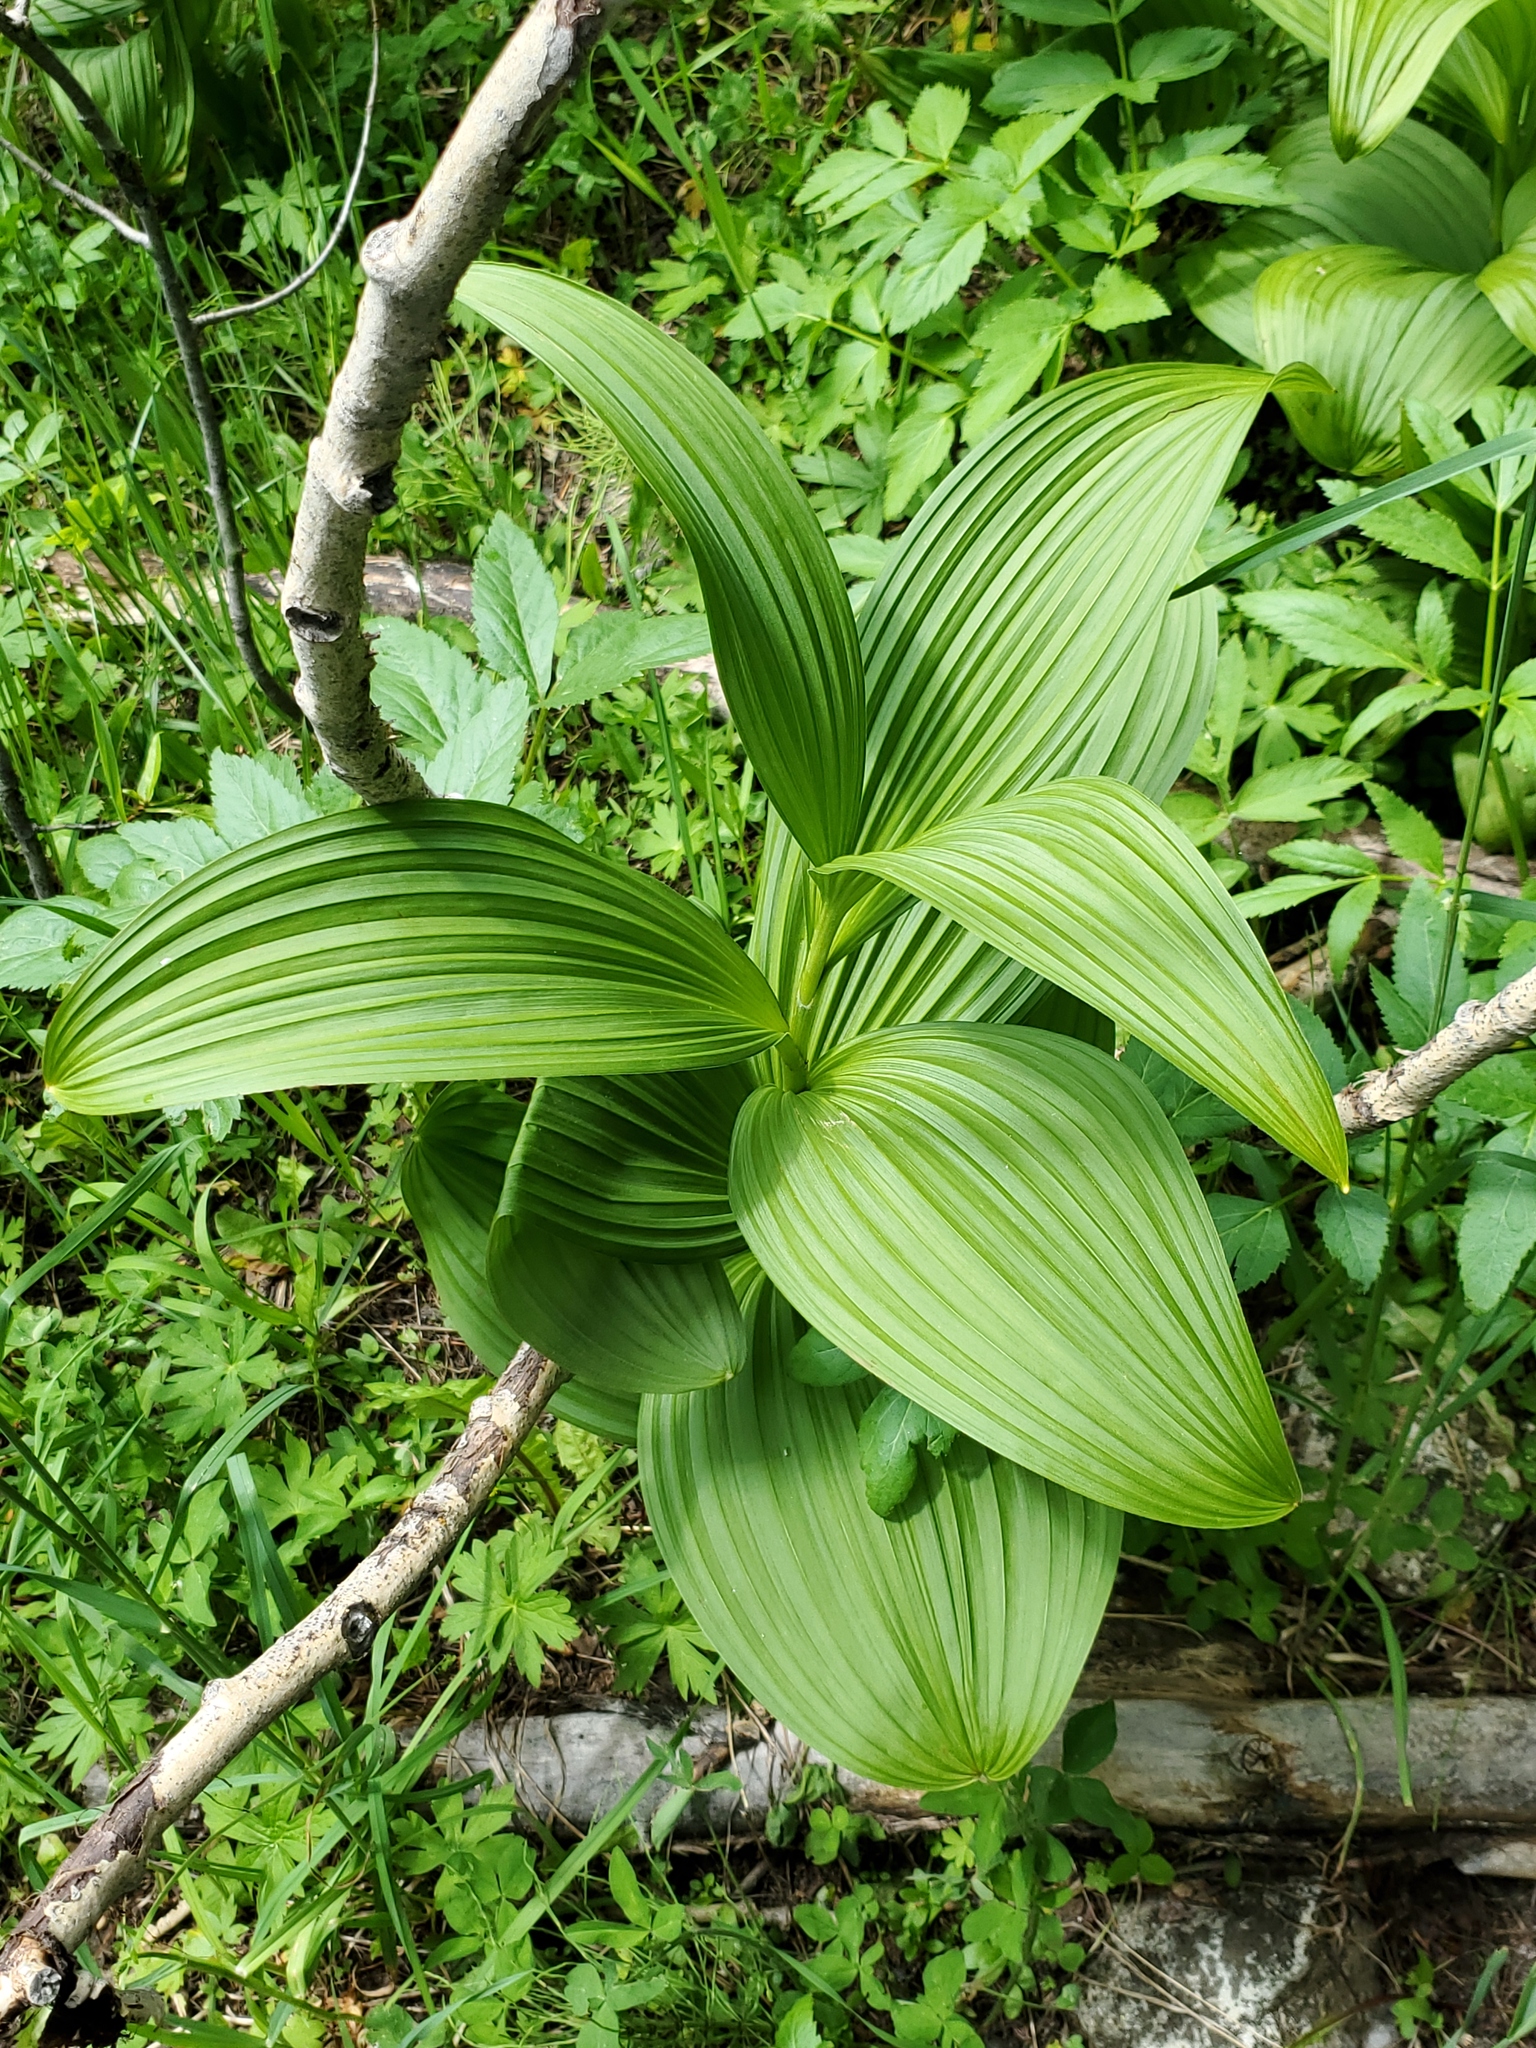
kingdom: Plantae
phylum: Tracheophyta
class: Liliopsida
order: Liliales
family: Melanthiaceae
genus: Veratrum
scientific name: Veratrum viride
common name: American false hellebore
